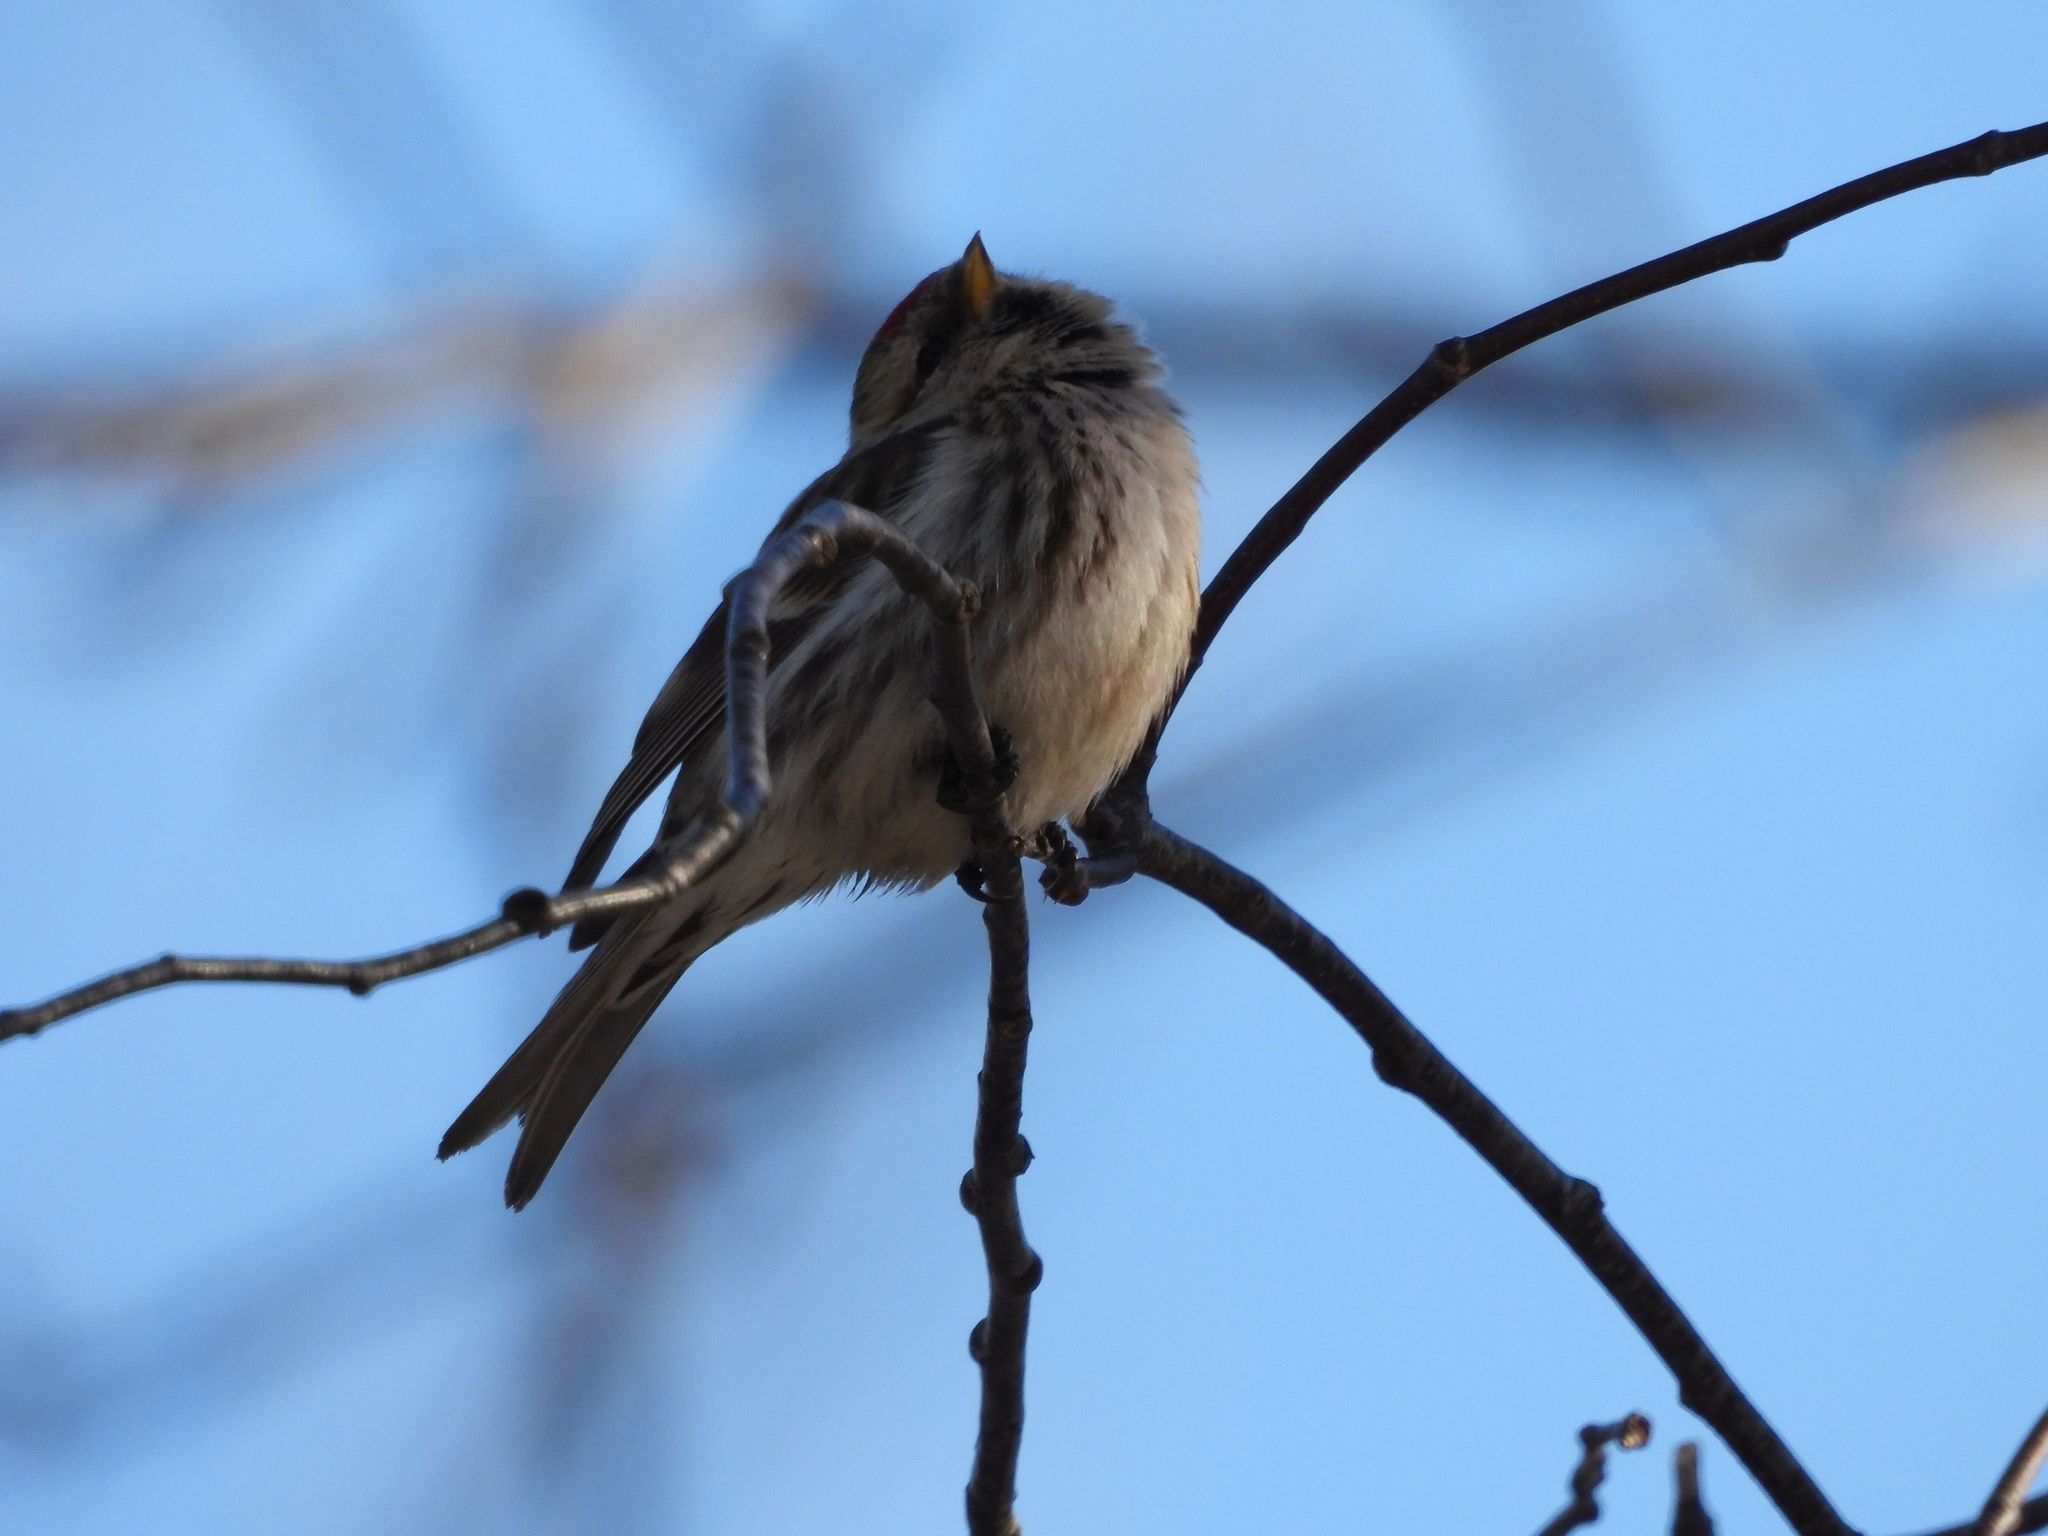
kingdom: Animalia
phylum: Chordata
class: Aves
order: Passeriformes
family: Fringillidae
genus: Acanthis
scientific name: Acanthis flammea
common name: Common redpoll
